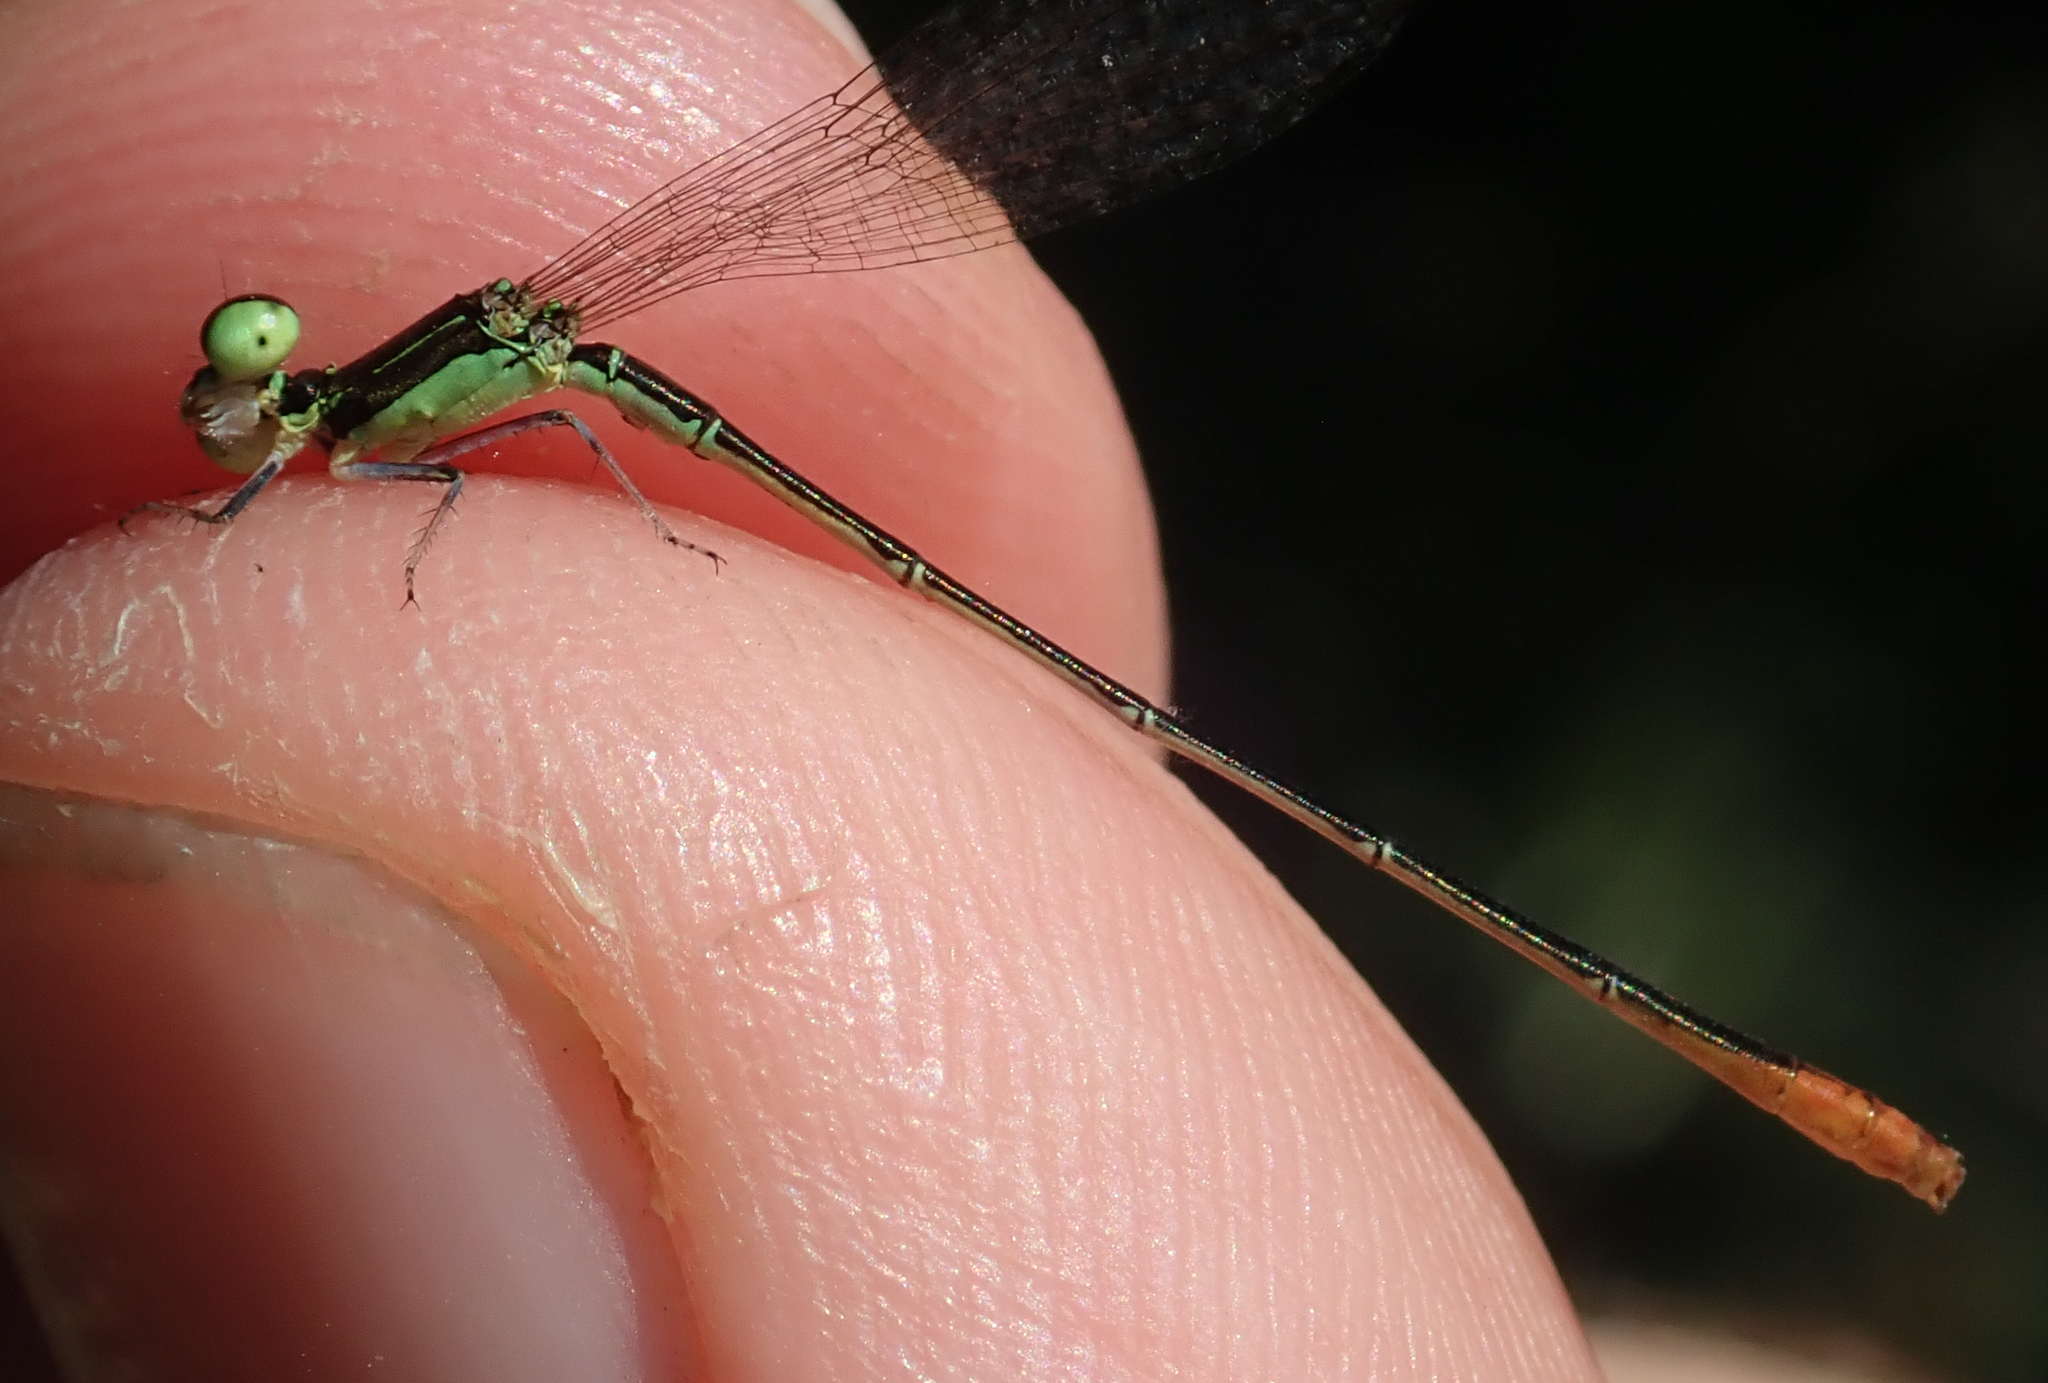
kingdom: Animalia
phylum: Arthropoda
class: Insecta
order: Odonata
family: Coenagrionidae
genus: Agriocnemis
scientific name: Agriocnemis gratiosa
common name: Gracious wisp
